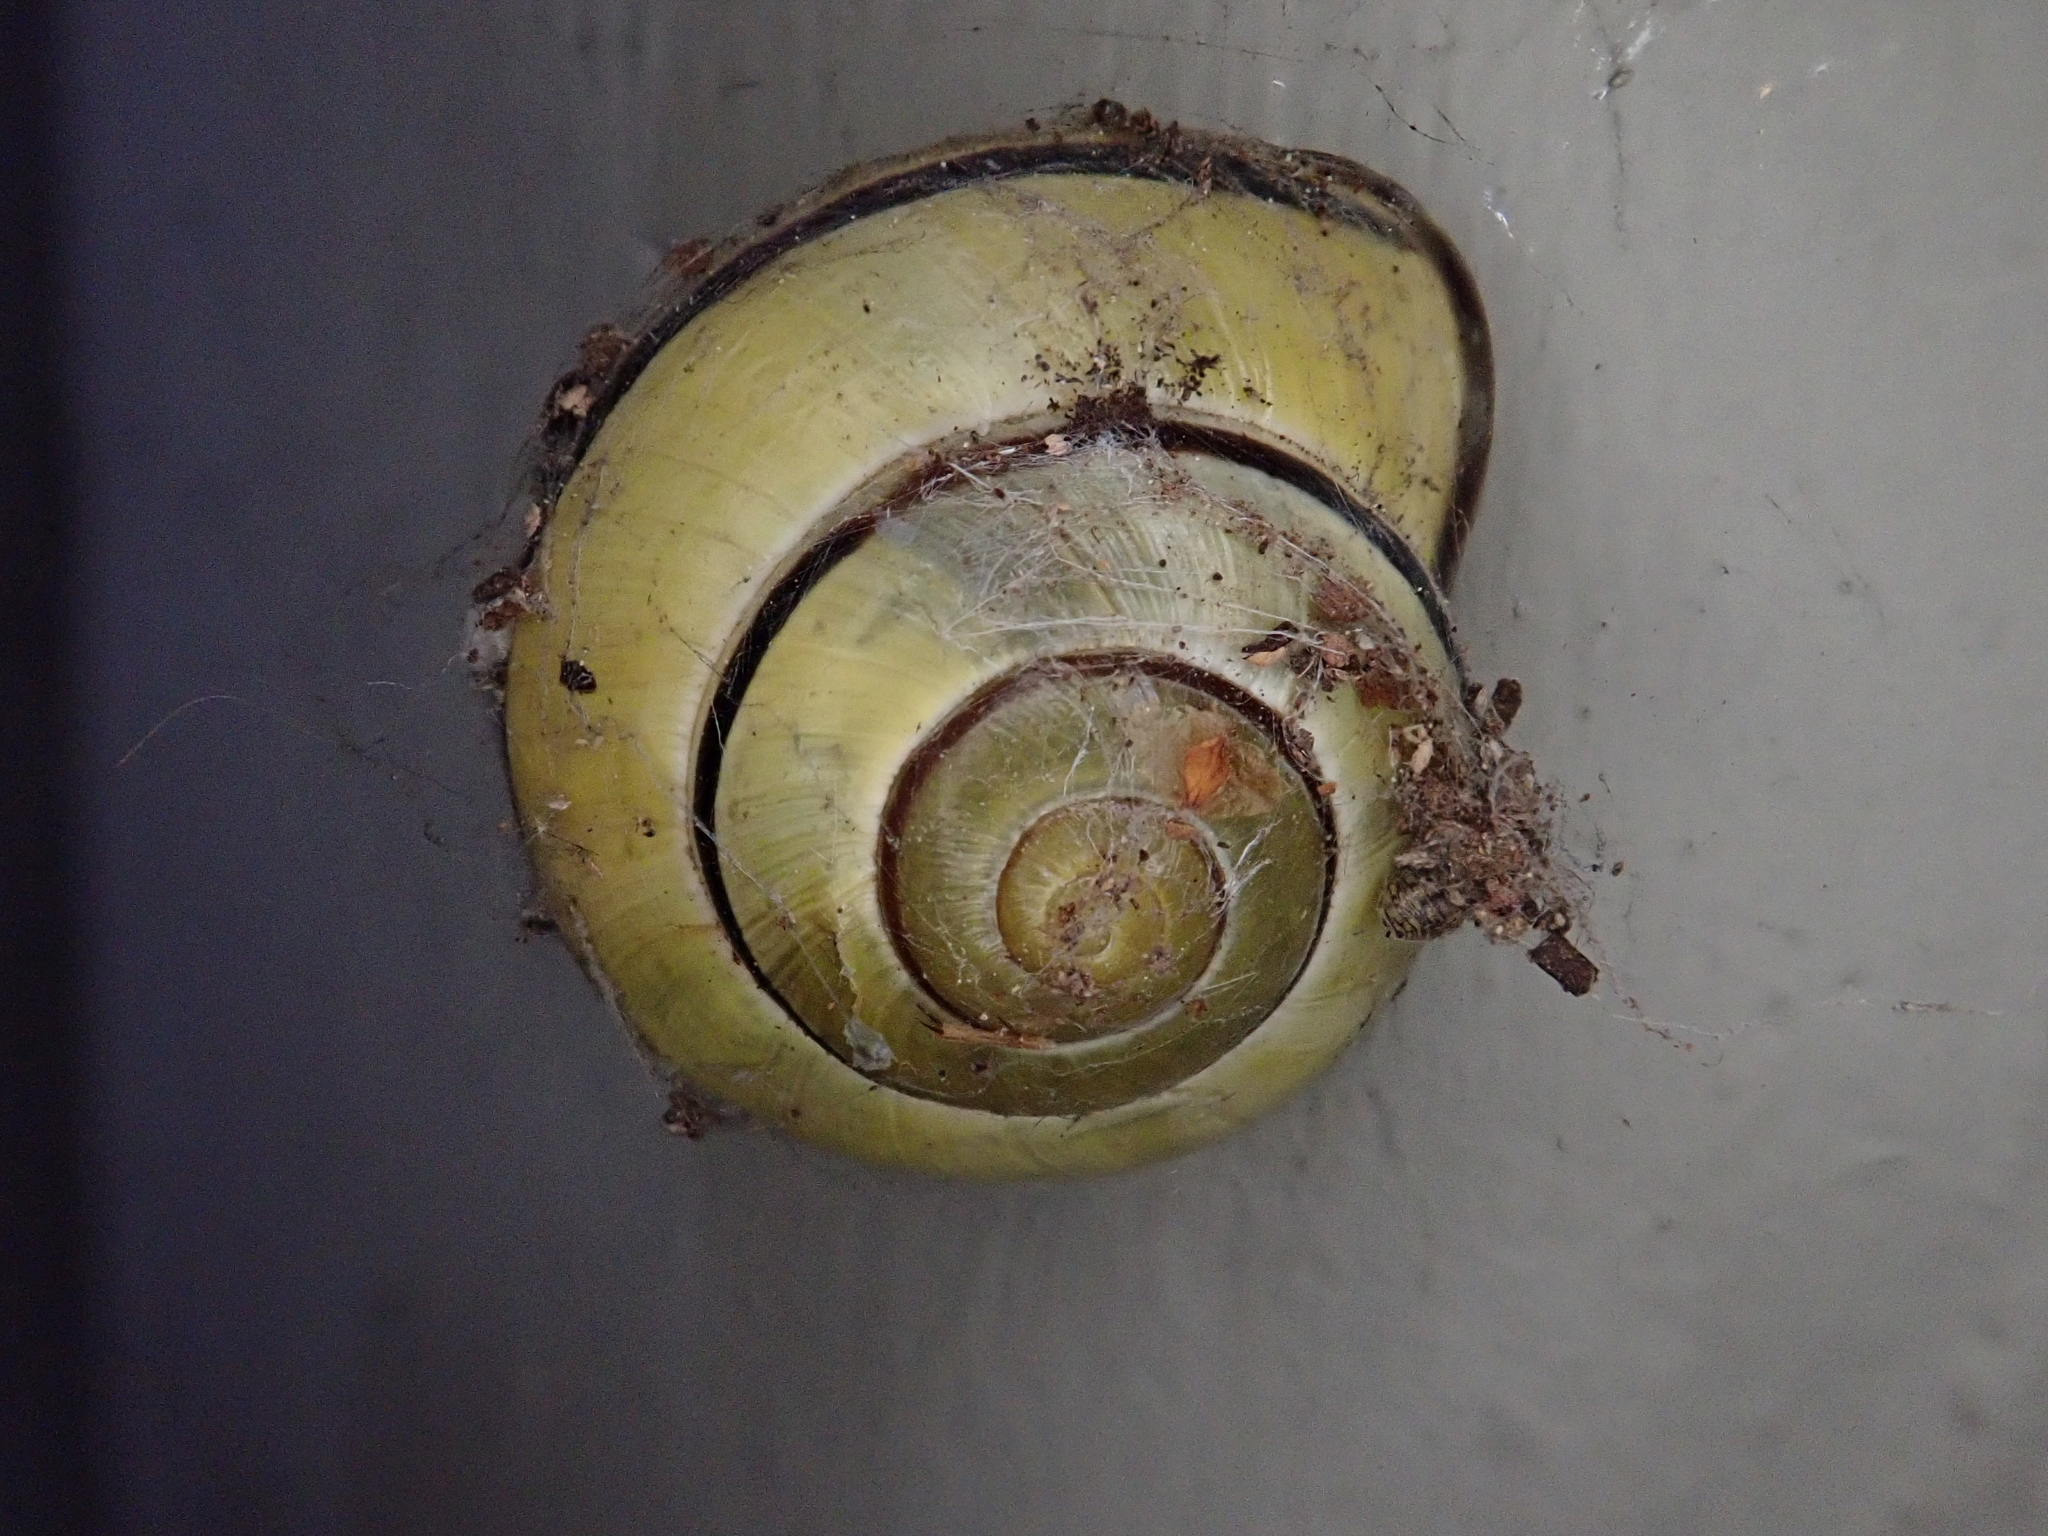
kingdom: Animalia
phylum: Mollusca
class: Gastropoda
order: Stylommatophora
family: Helicidae
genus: Cepaea
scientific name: Cepaea nemoralis
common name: Grovesnail
